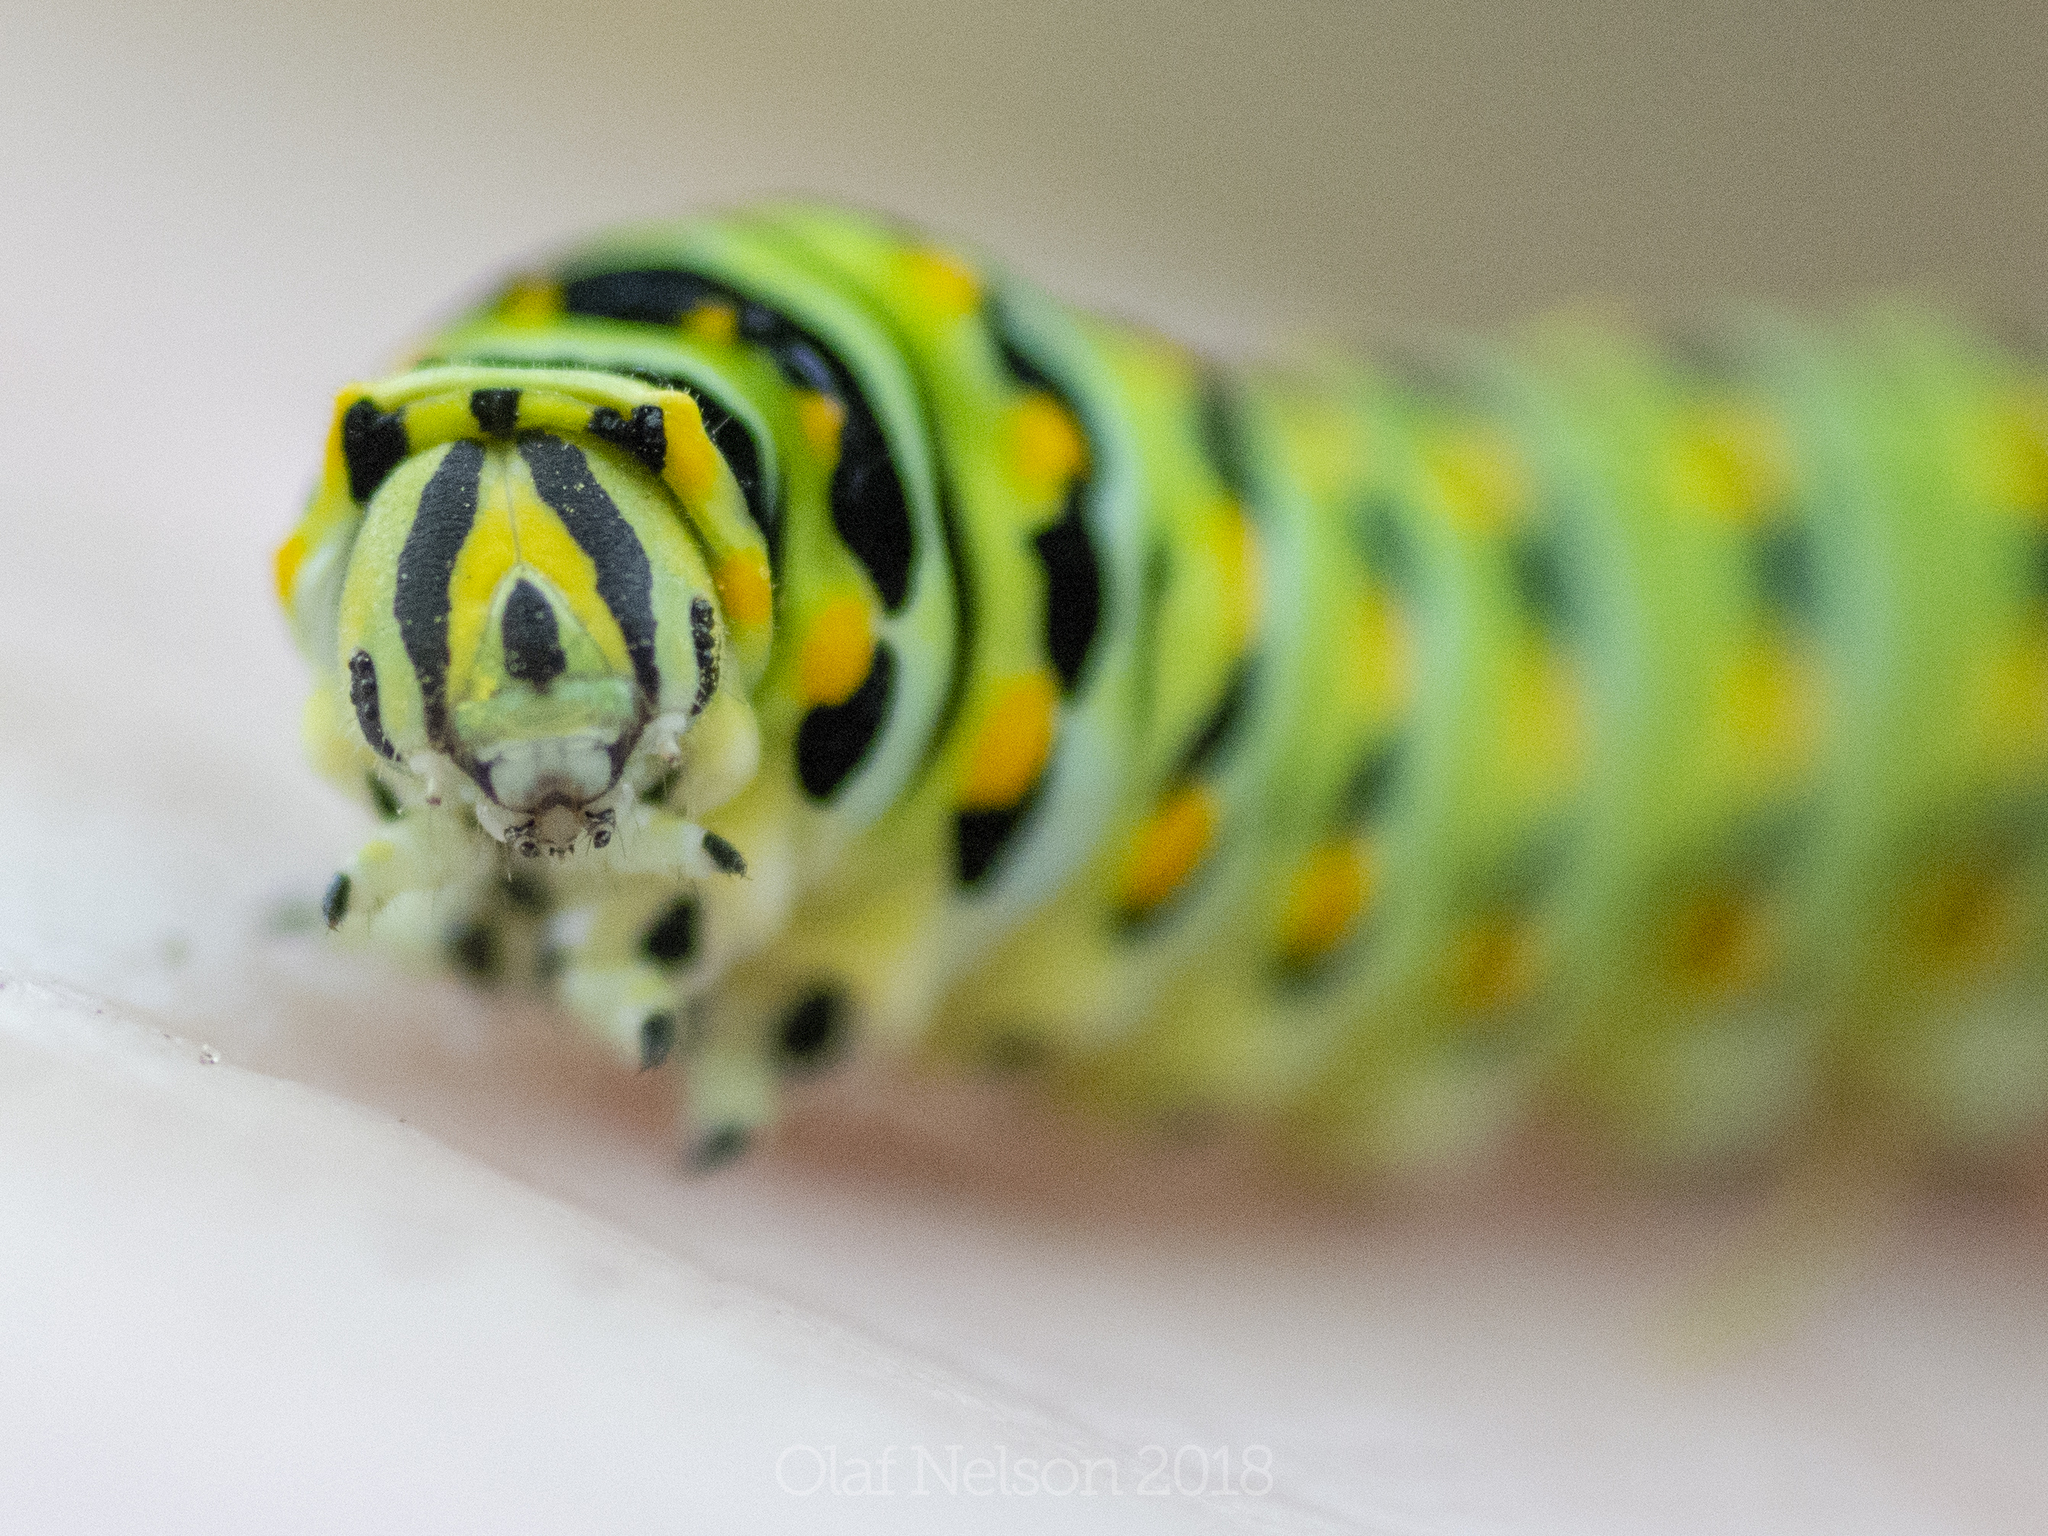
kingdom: Animalia
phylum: Arthropoda
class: Insecta
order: Lepidoptera
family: Papilionidae
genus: Papilio
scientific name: Papilio polyxenes
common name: Black swallowtail
